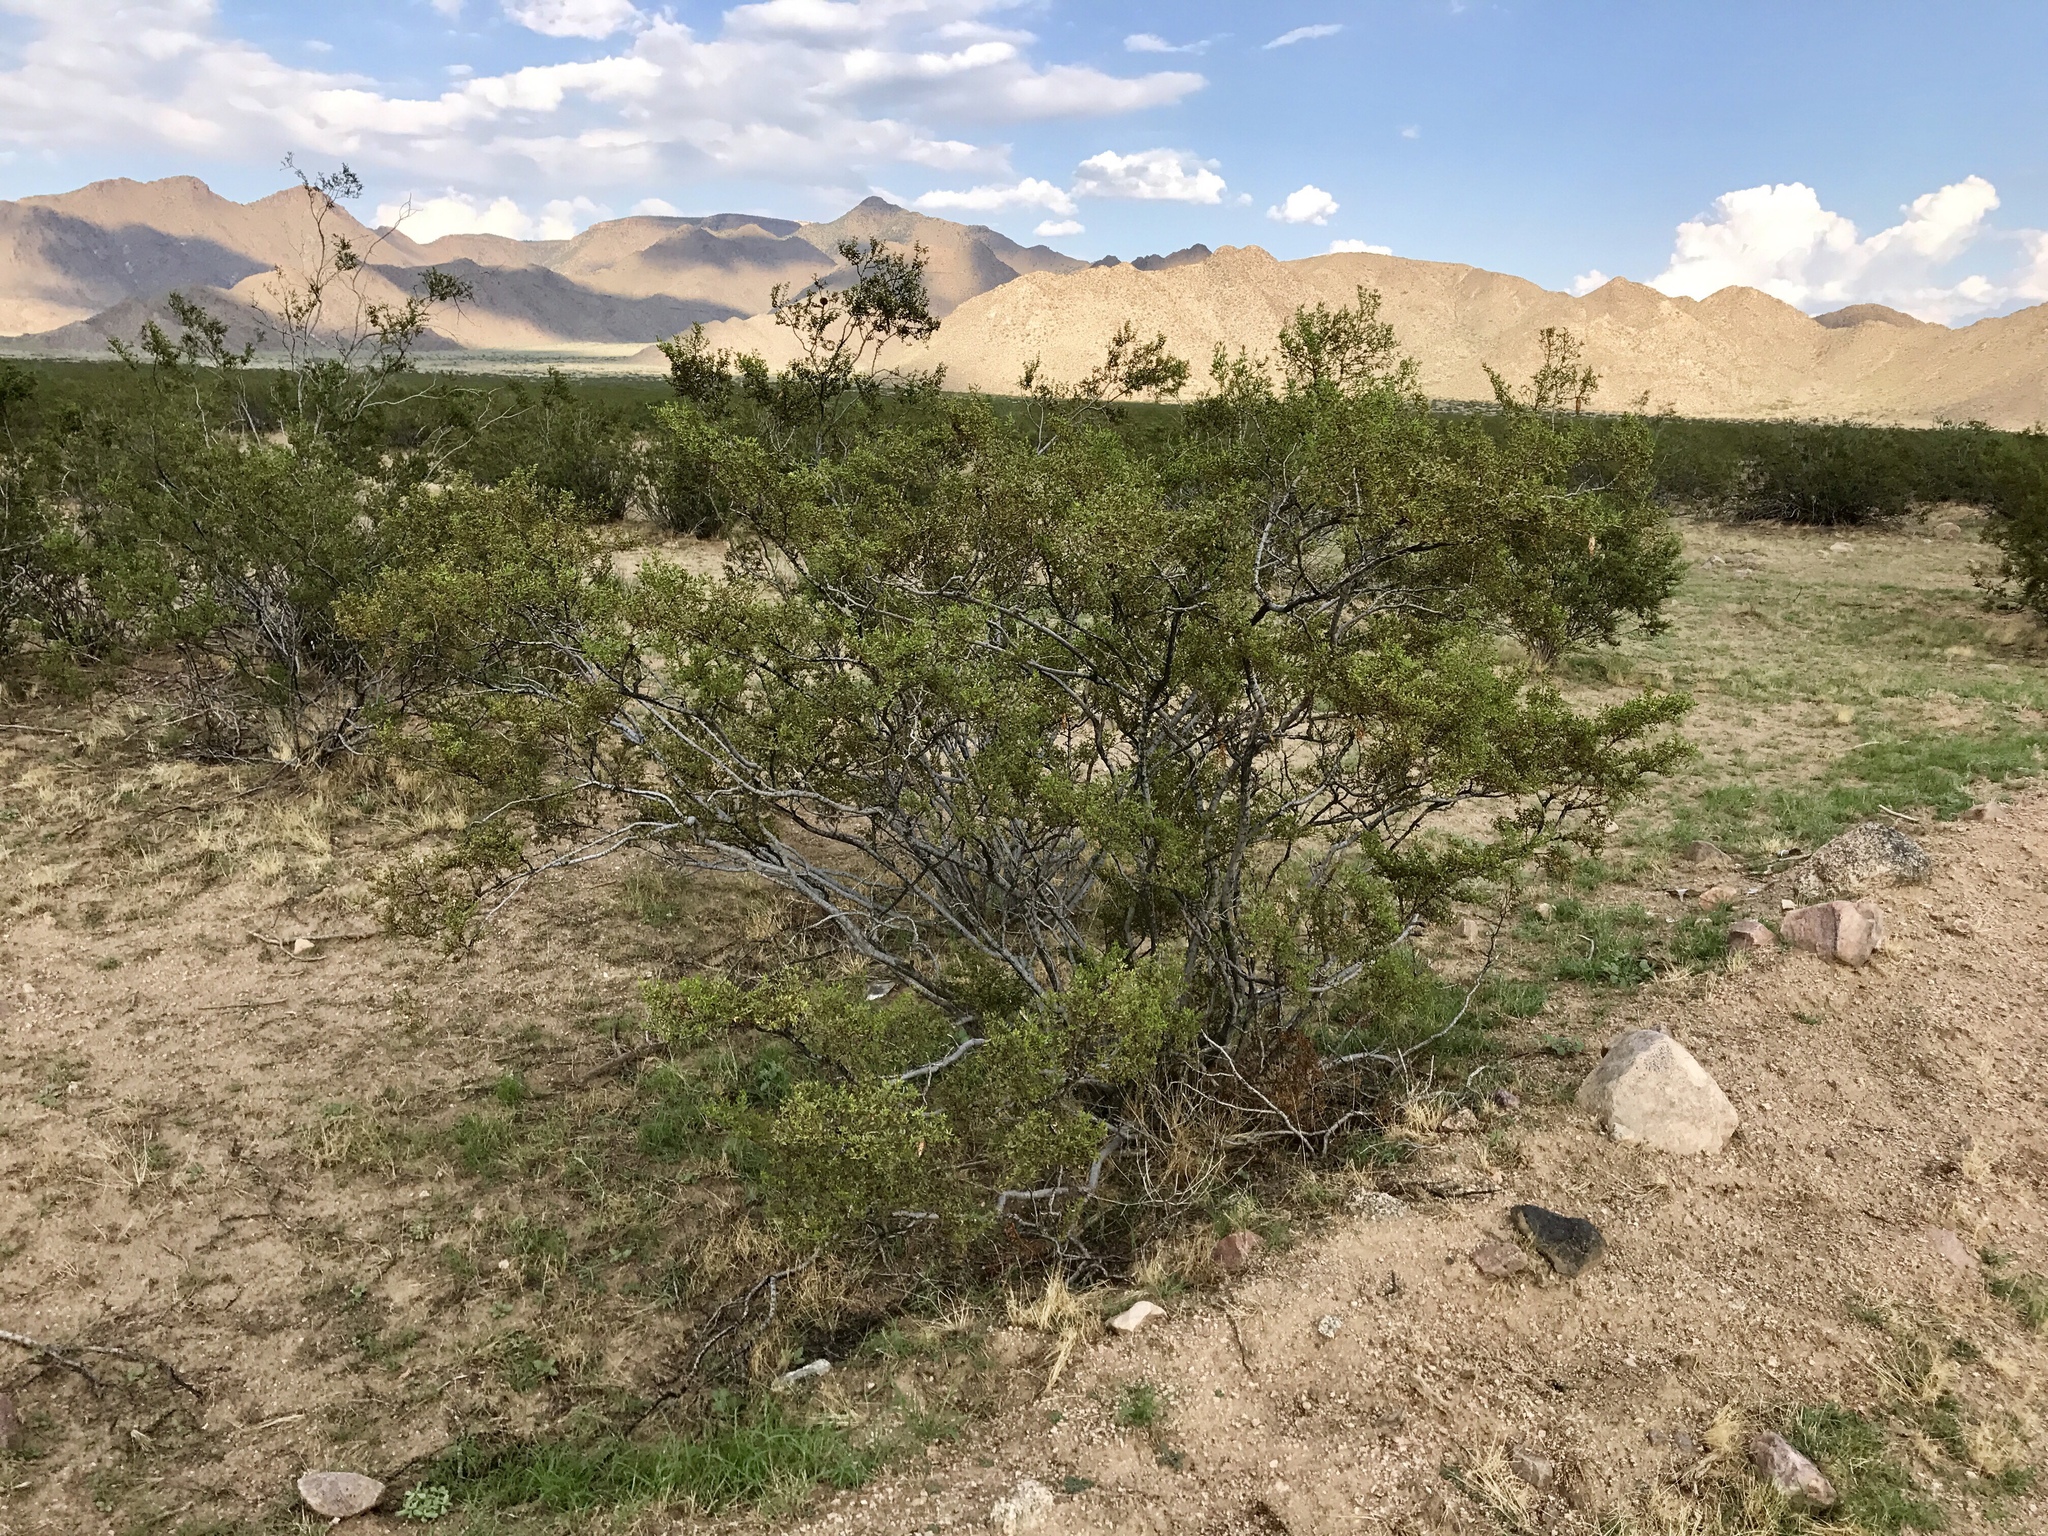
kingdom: Plantae
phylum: Tracheophyta
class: Magnoliopsida
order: Zygophyllales
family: Zygophyllaceae
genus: Larrea
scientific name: Larrea tridentata
